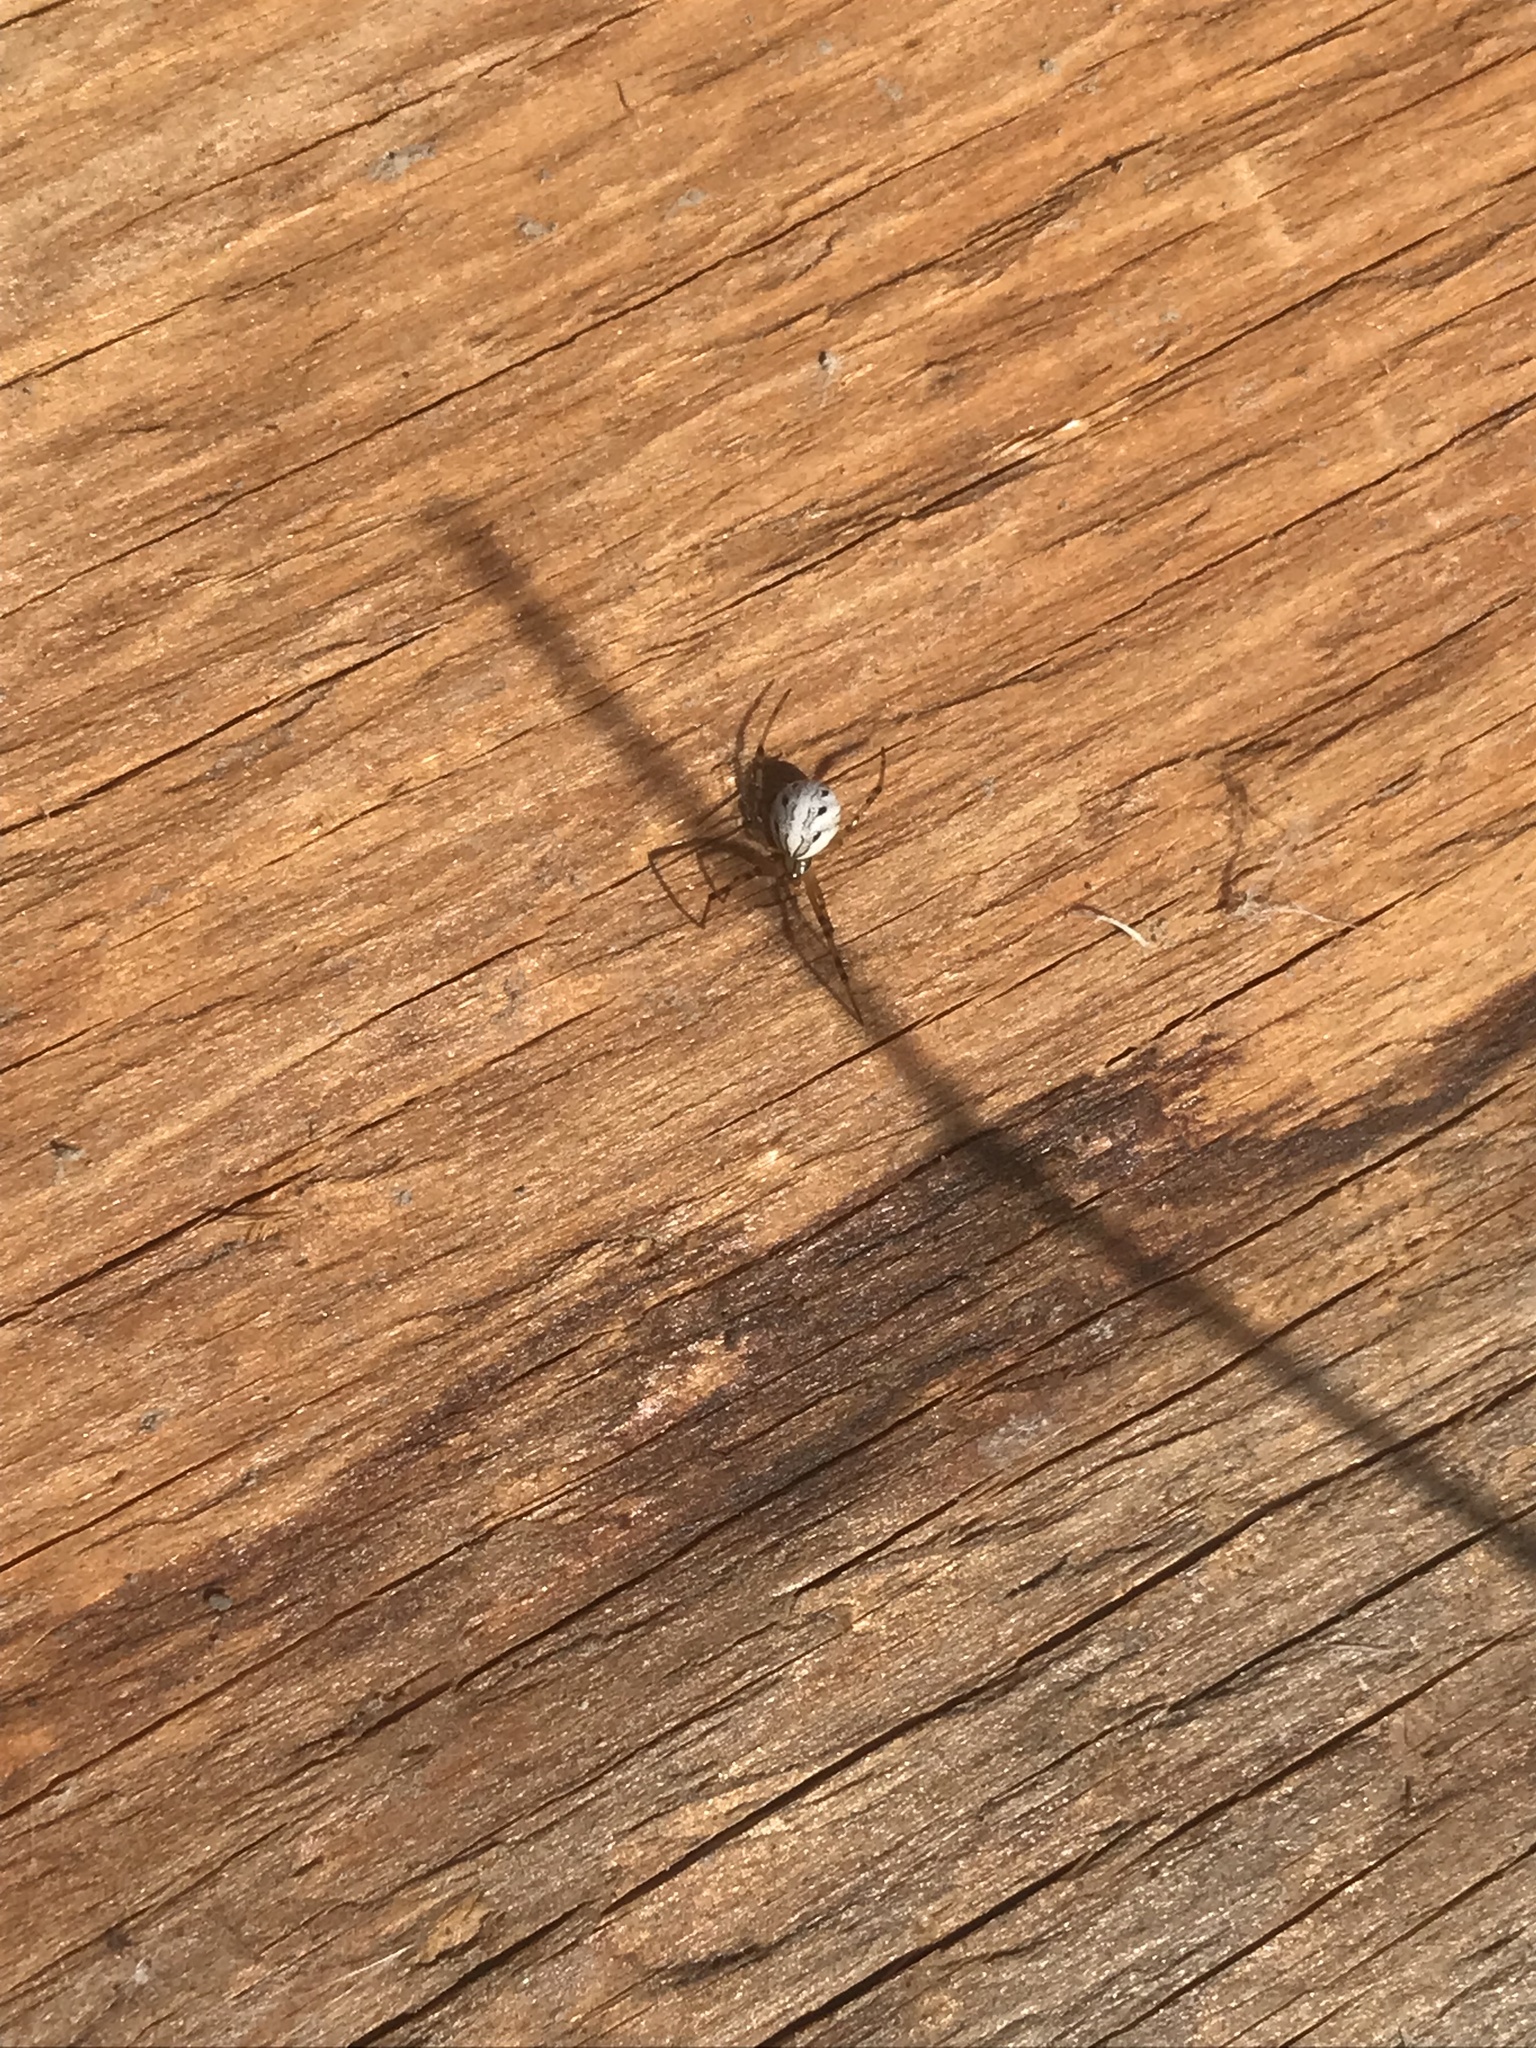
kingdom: Animalia
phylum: Arthropoda
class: Arachnida
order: Araneae
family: Theridiidae
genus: Latrodectus
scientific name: Latrodectus hesperus
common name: Western black widow
